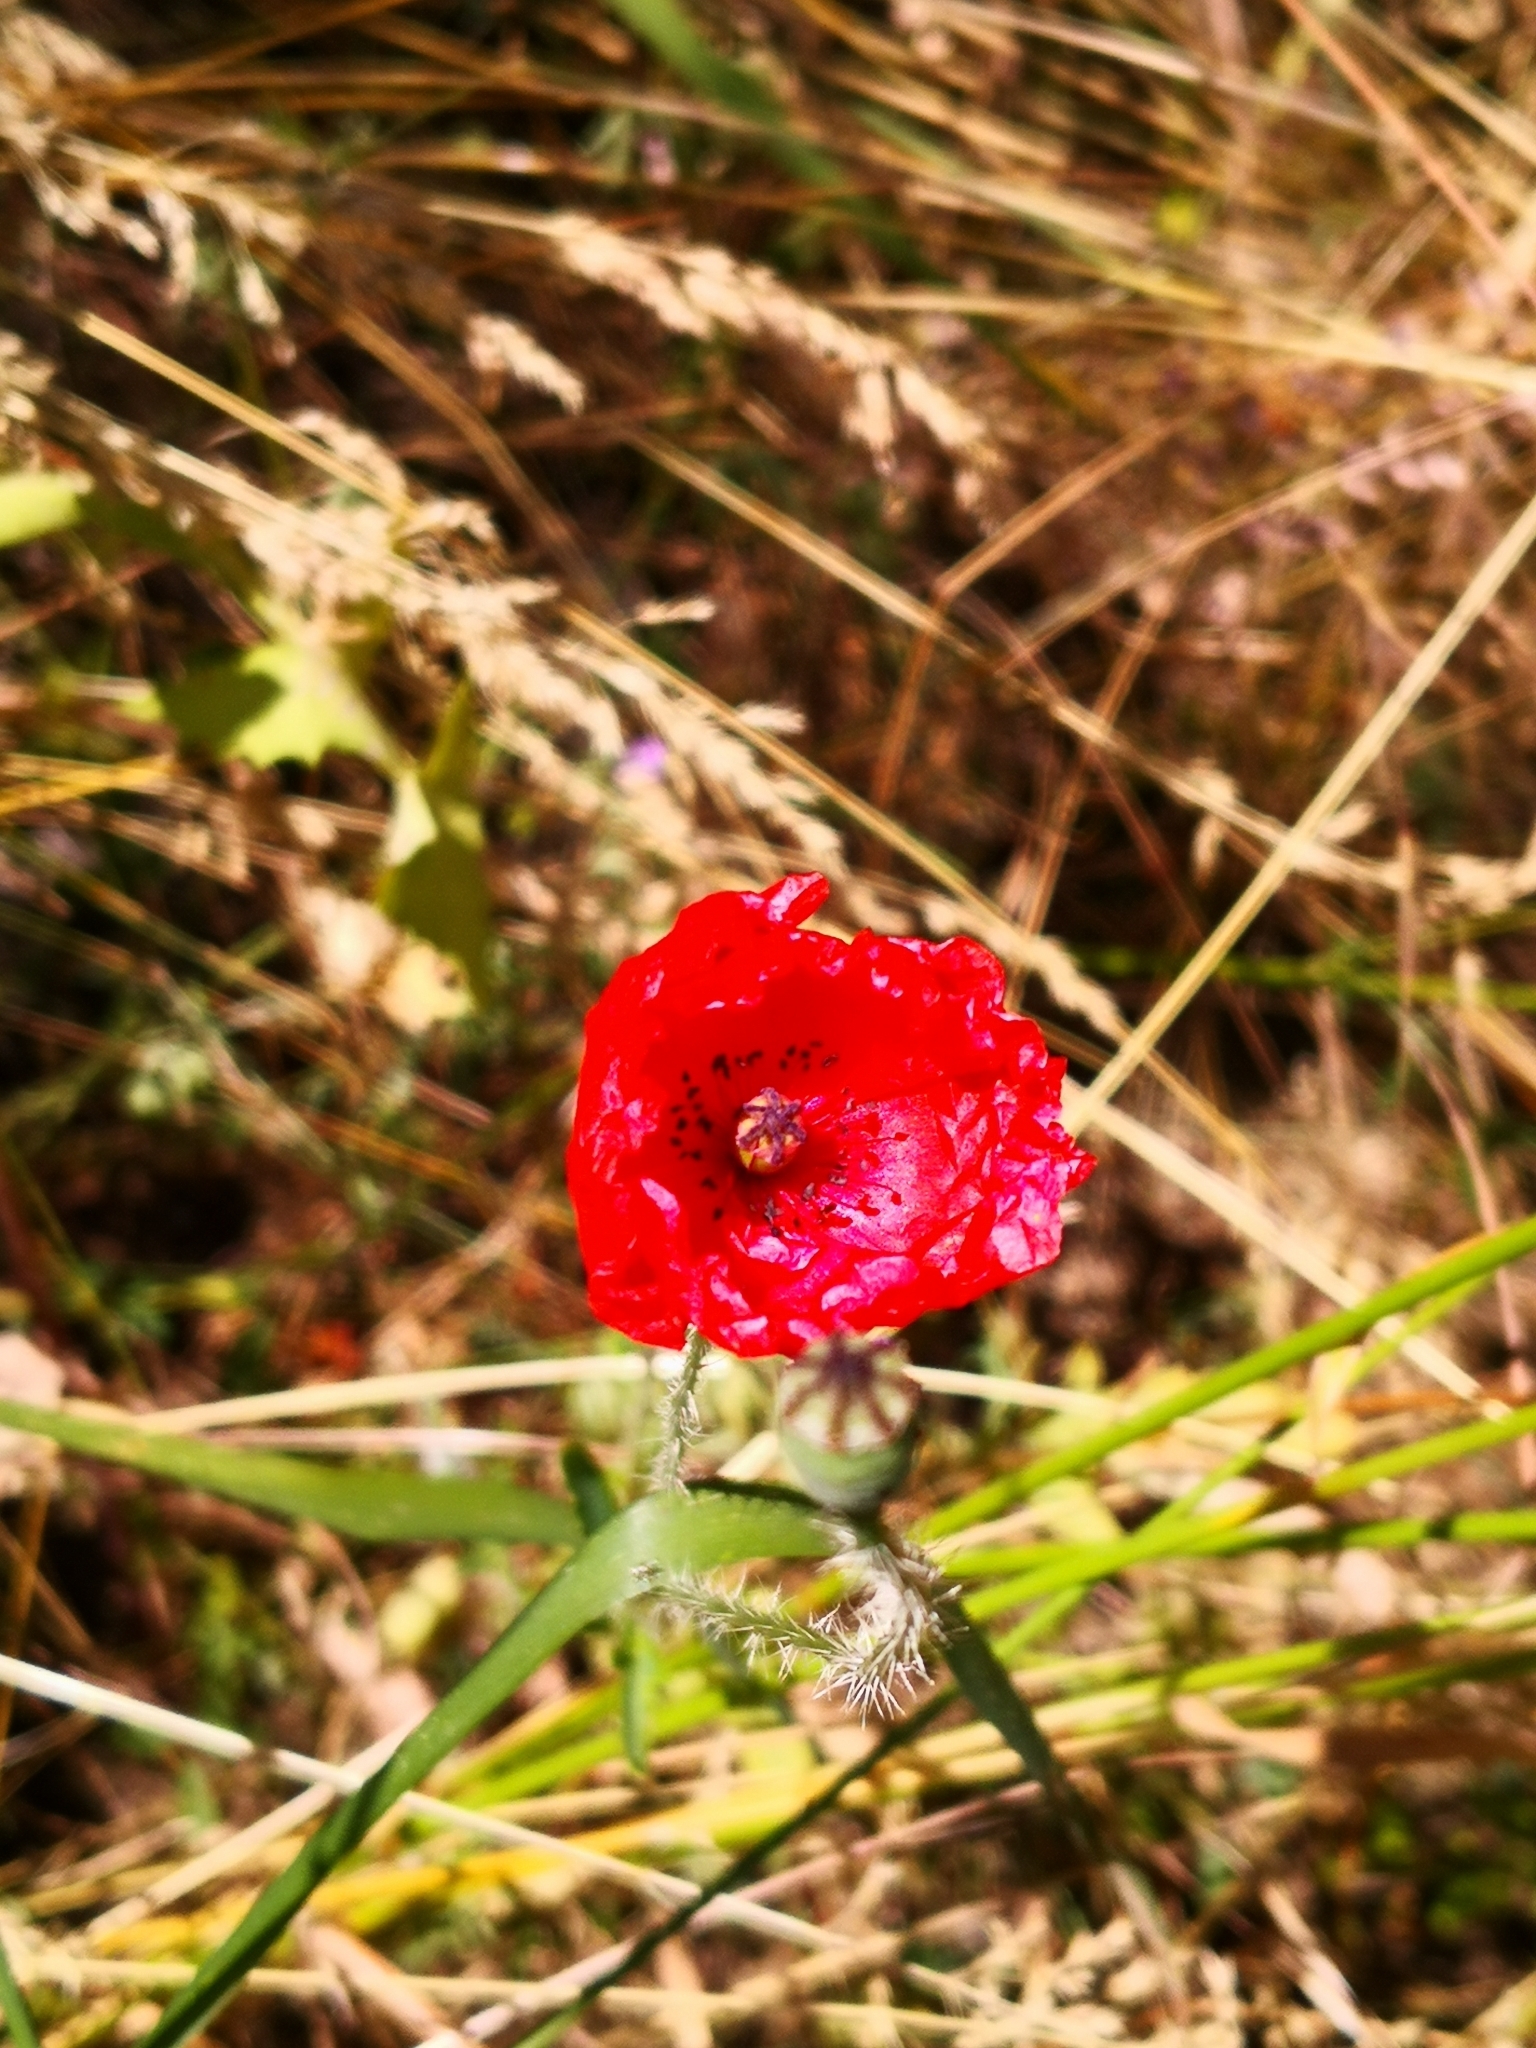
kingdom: Plantae
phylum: Tracheophyta
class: Magnoliopsida
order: Ranunculales
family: Papaveraceae
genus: Papaver
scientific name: Papaver rhoeas
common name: Corn poppy
